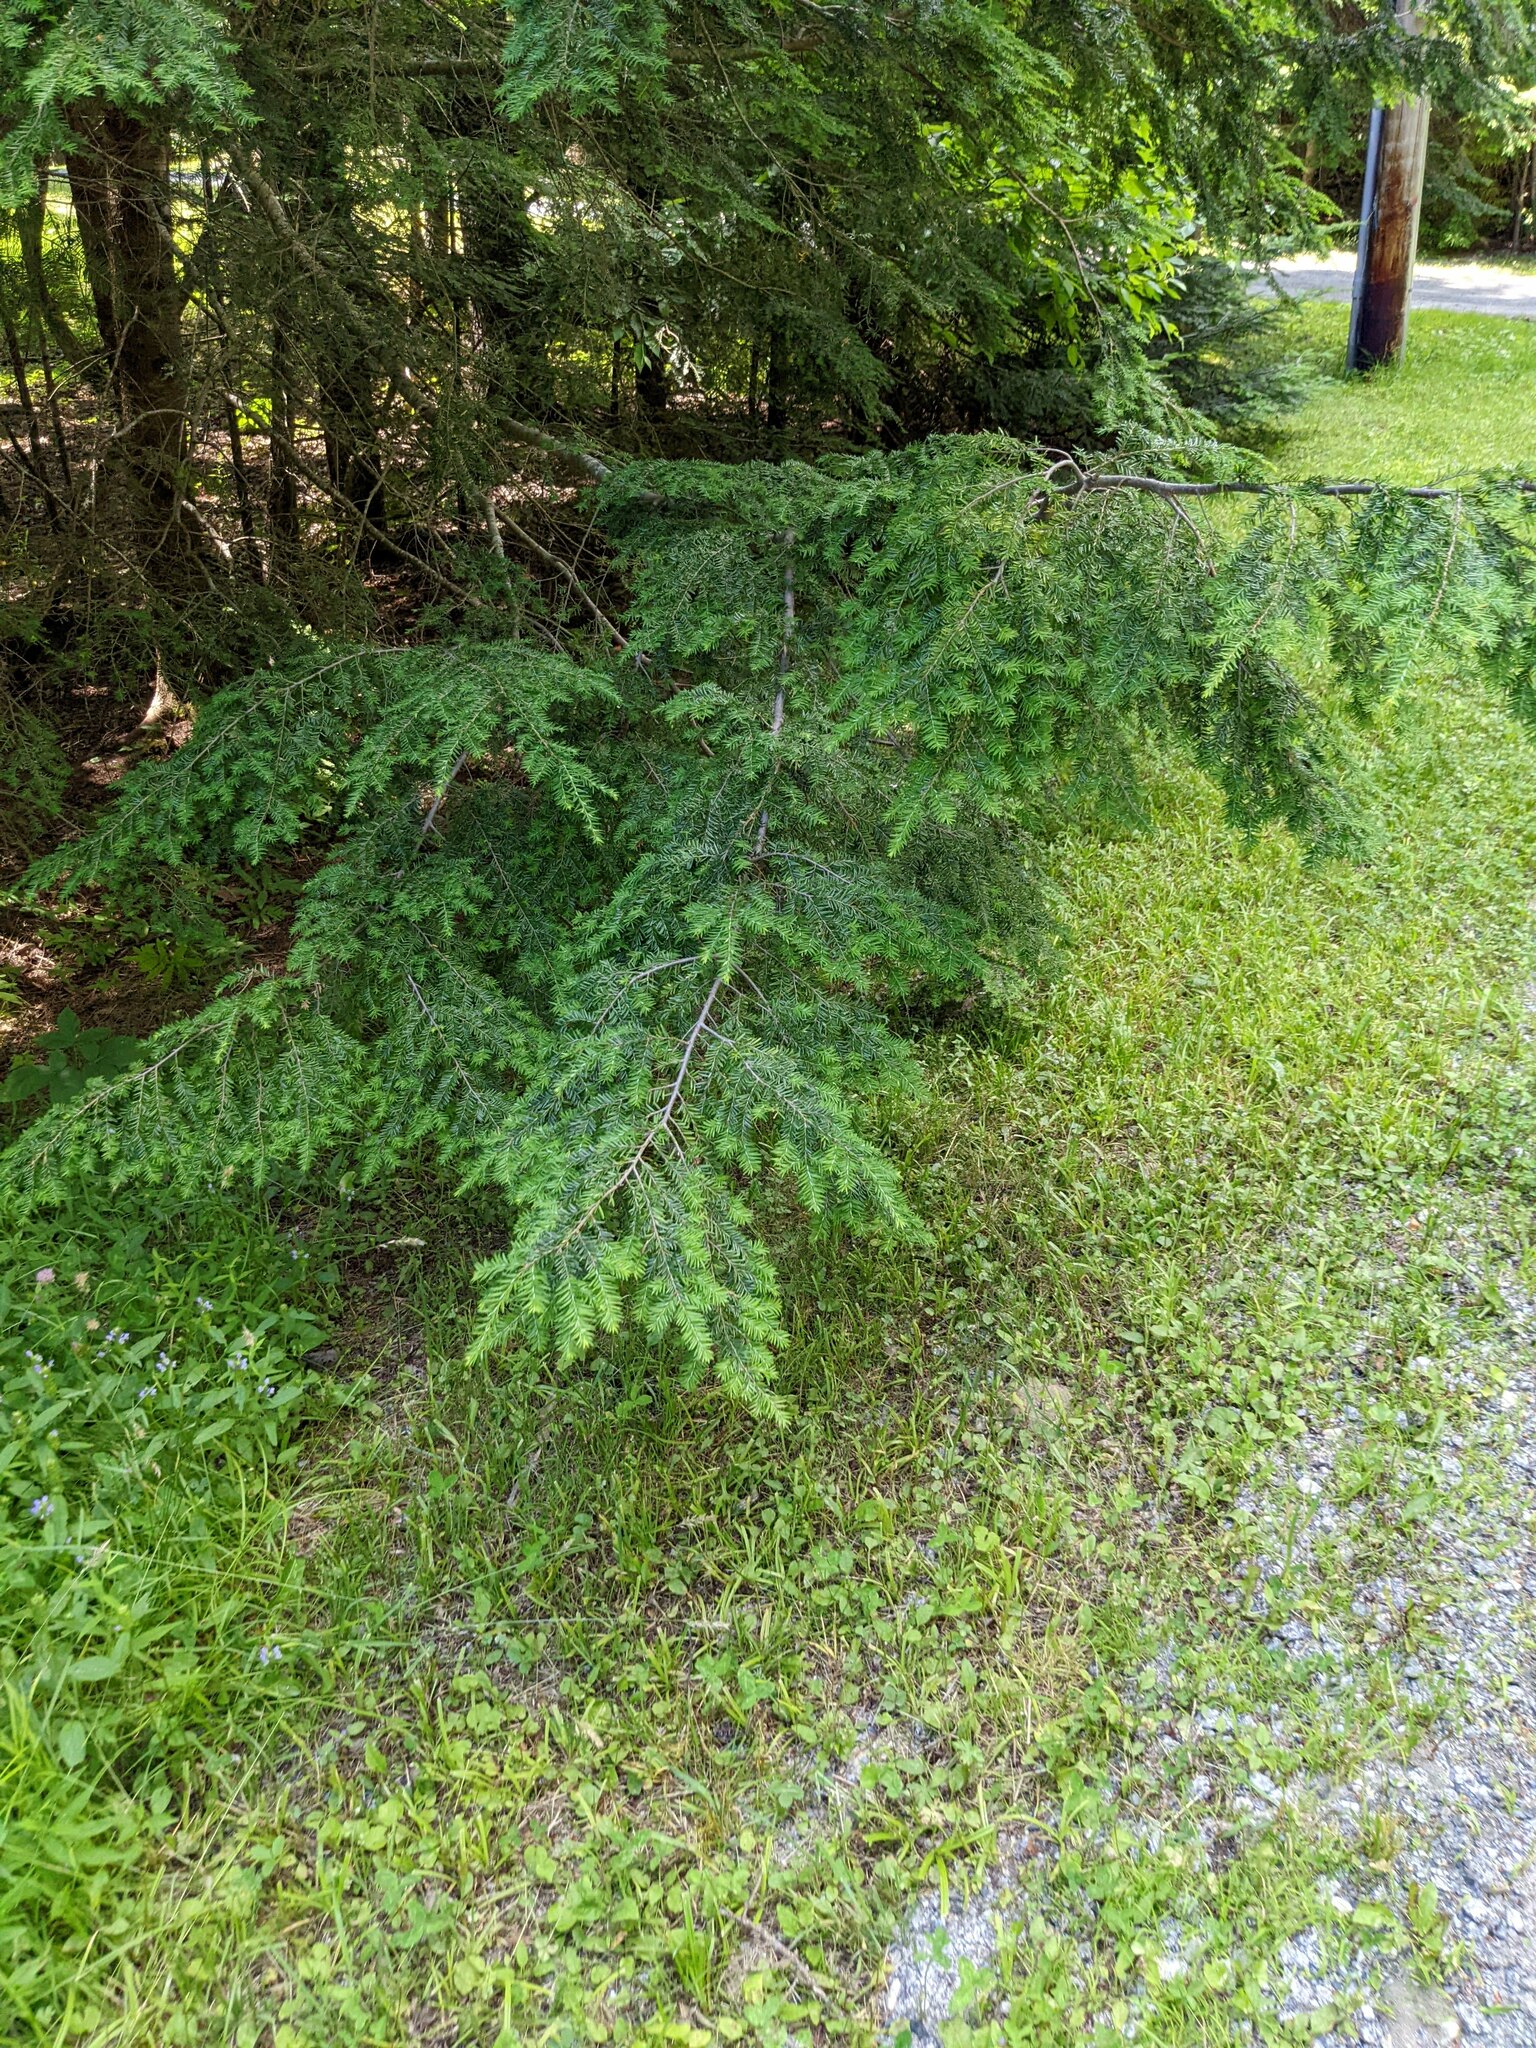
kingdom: Plantae
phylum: Tracheophyta
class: Pinopsida
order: Pinales
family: Pinaceae
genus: Tsuga
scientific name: Tsuga canadensis
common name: Eastern hemlock
